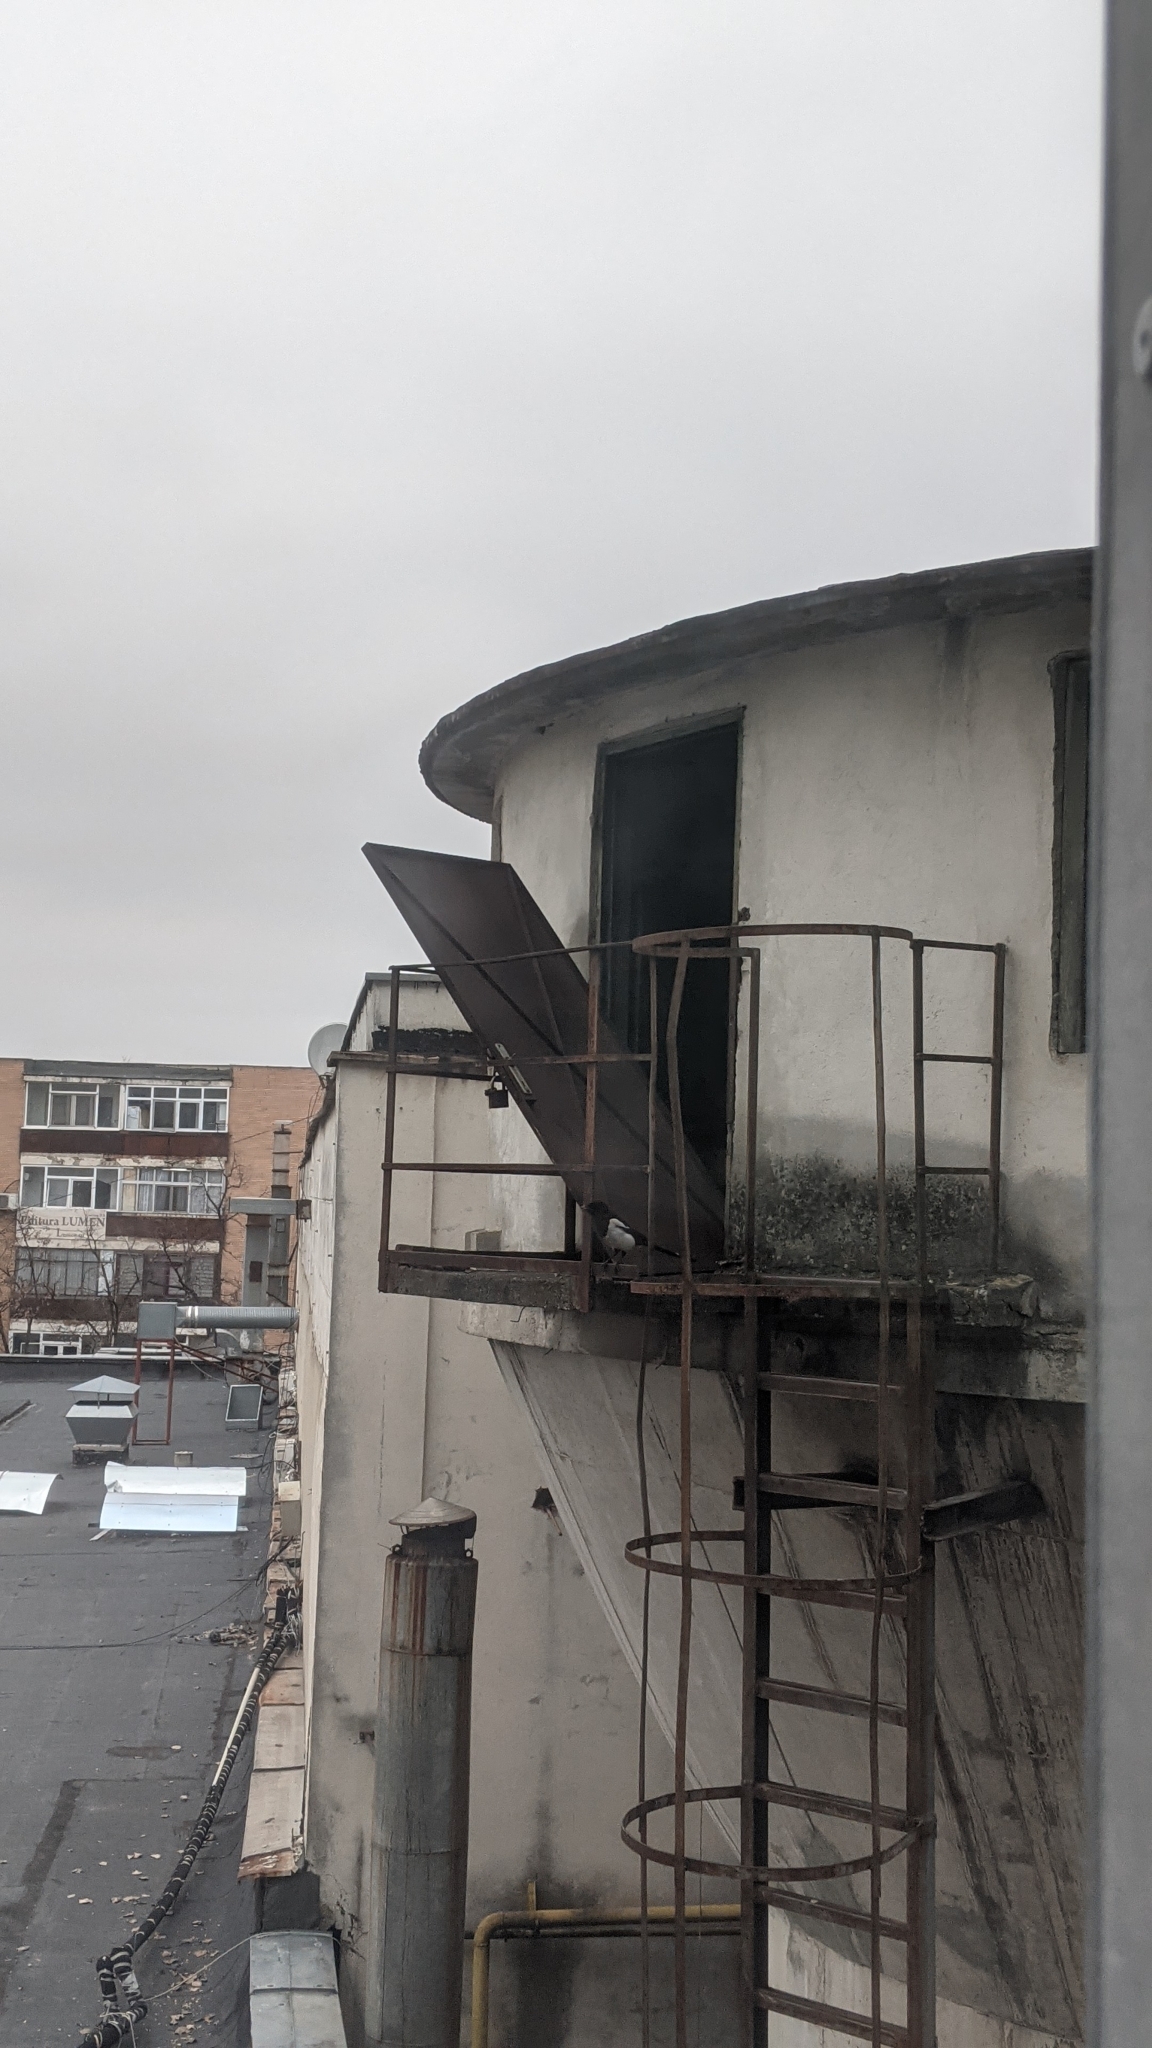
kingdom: Animalia
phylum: Chordata
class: Aves
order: Passeriformes
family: Corvidae
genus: Pica
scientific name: Pica pica
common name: Eurasian magpie
